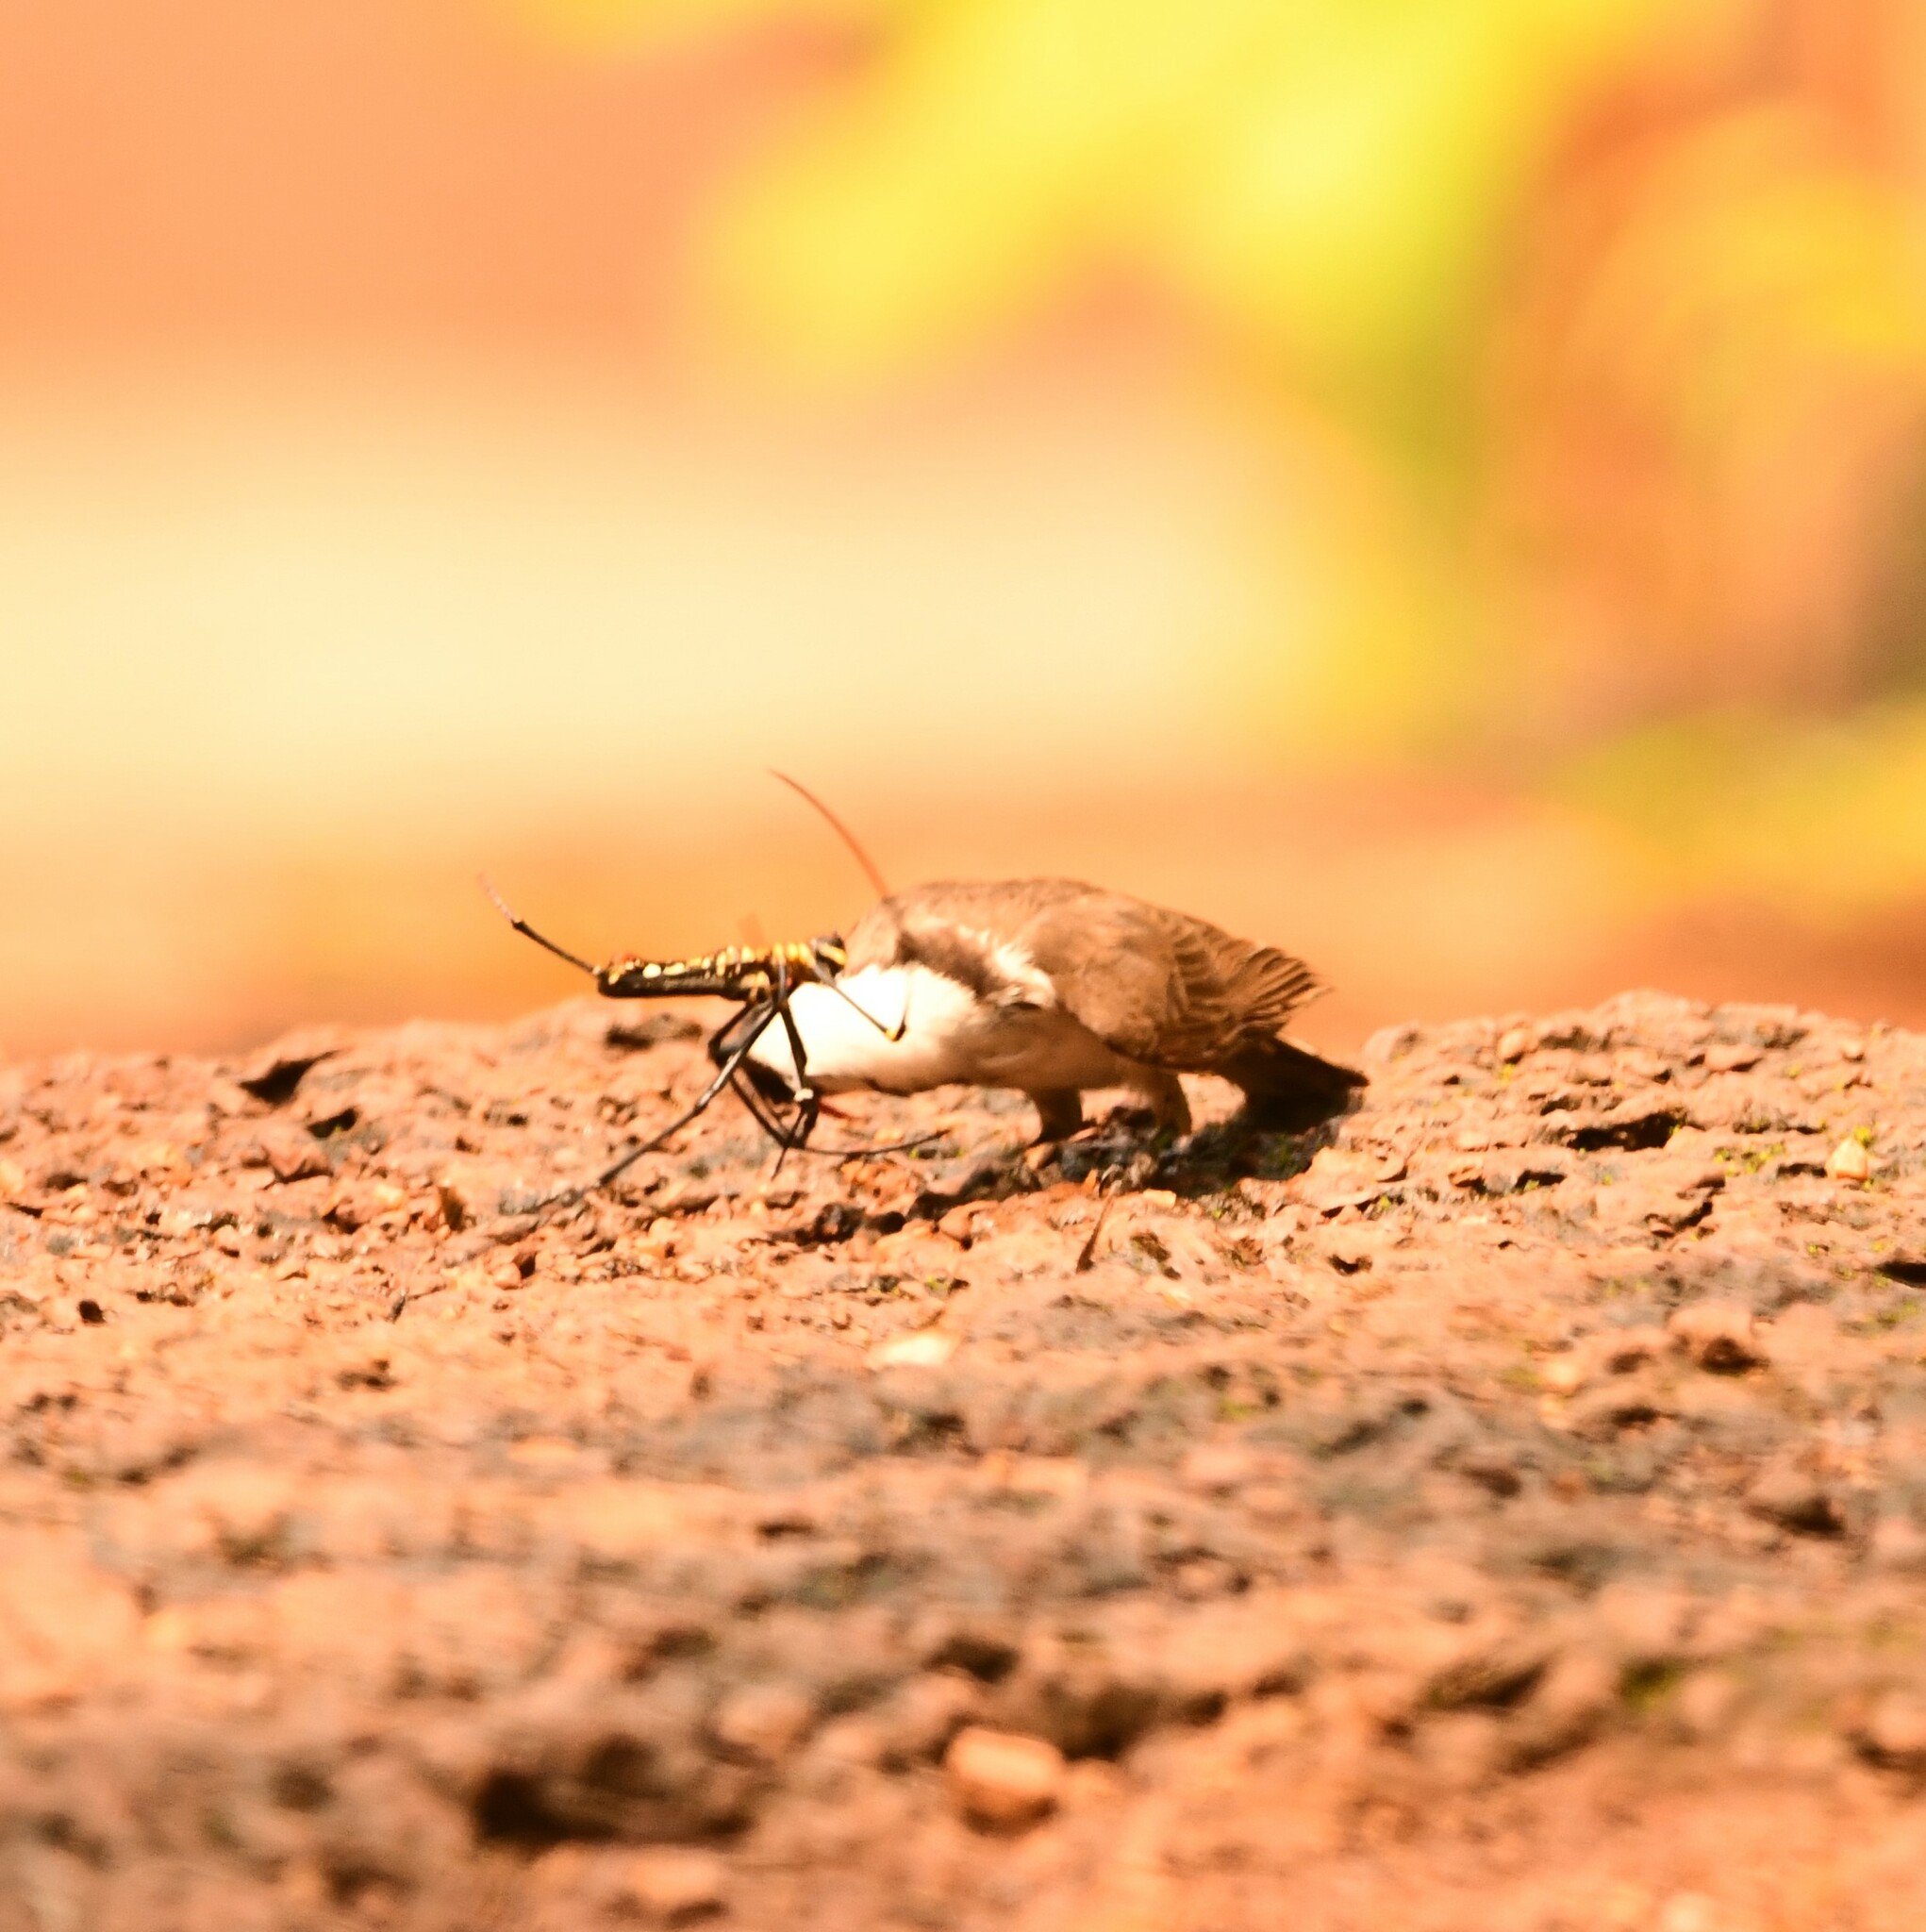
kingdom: Animalia
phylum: Arthropoda
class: Arachnida
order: Araneae
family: Araneidae
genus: Nephila
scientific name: Nephila pilipes
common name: Giant golden orb weaver
